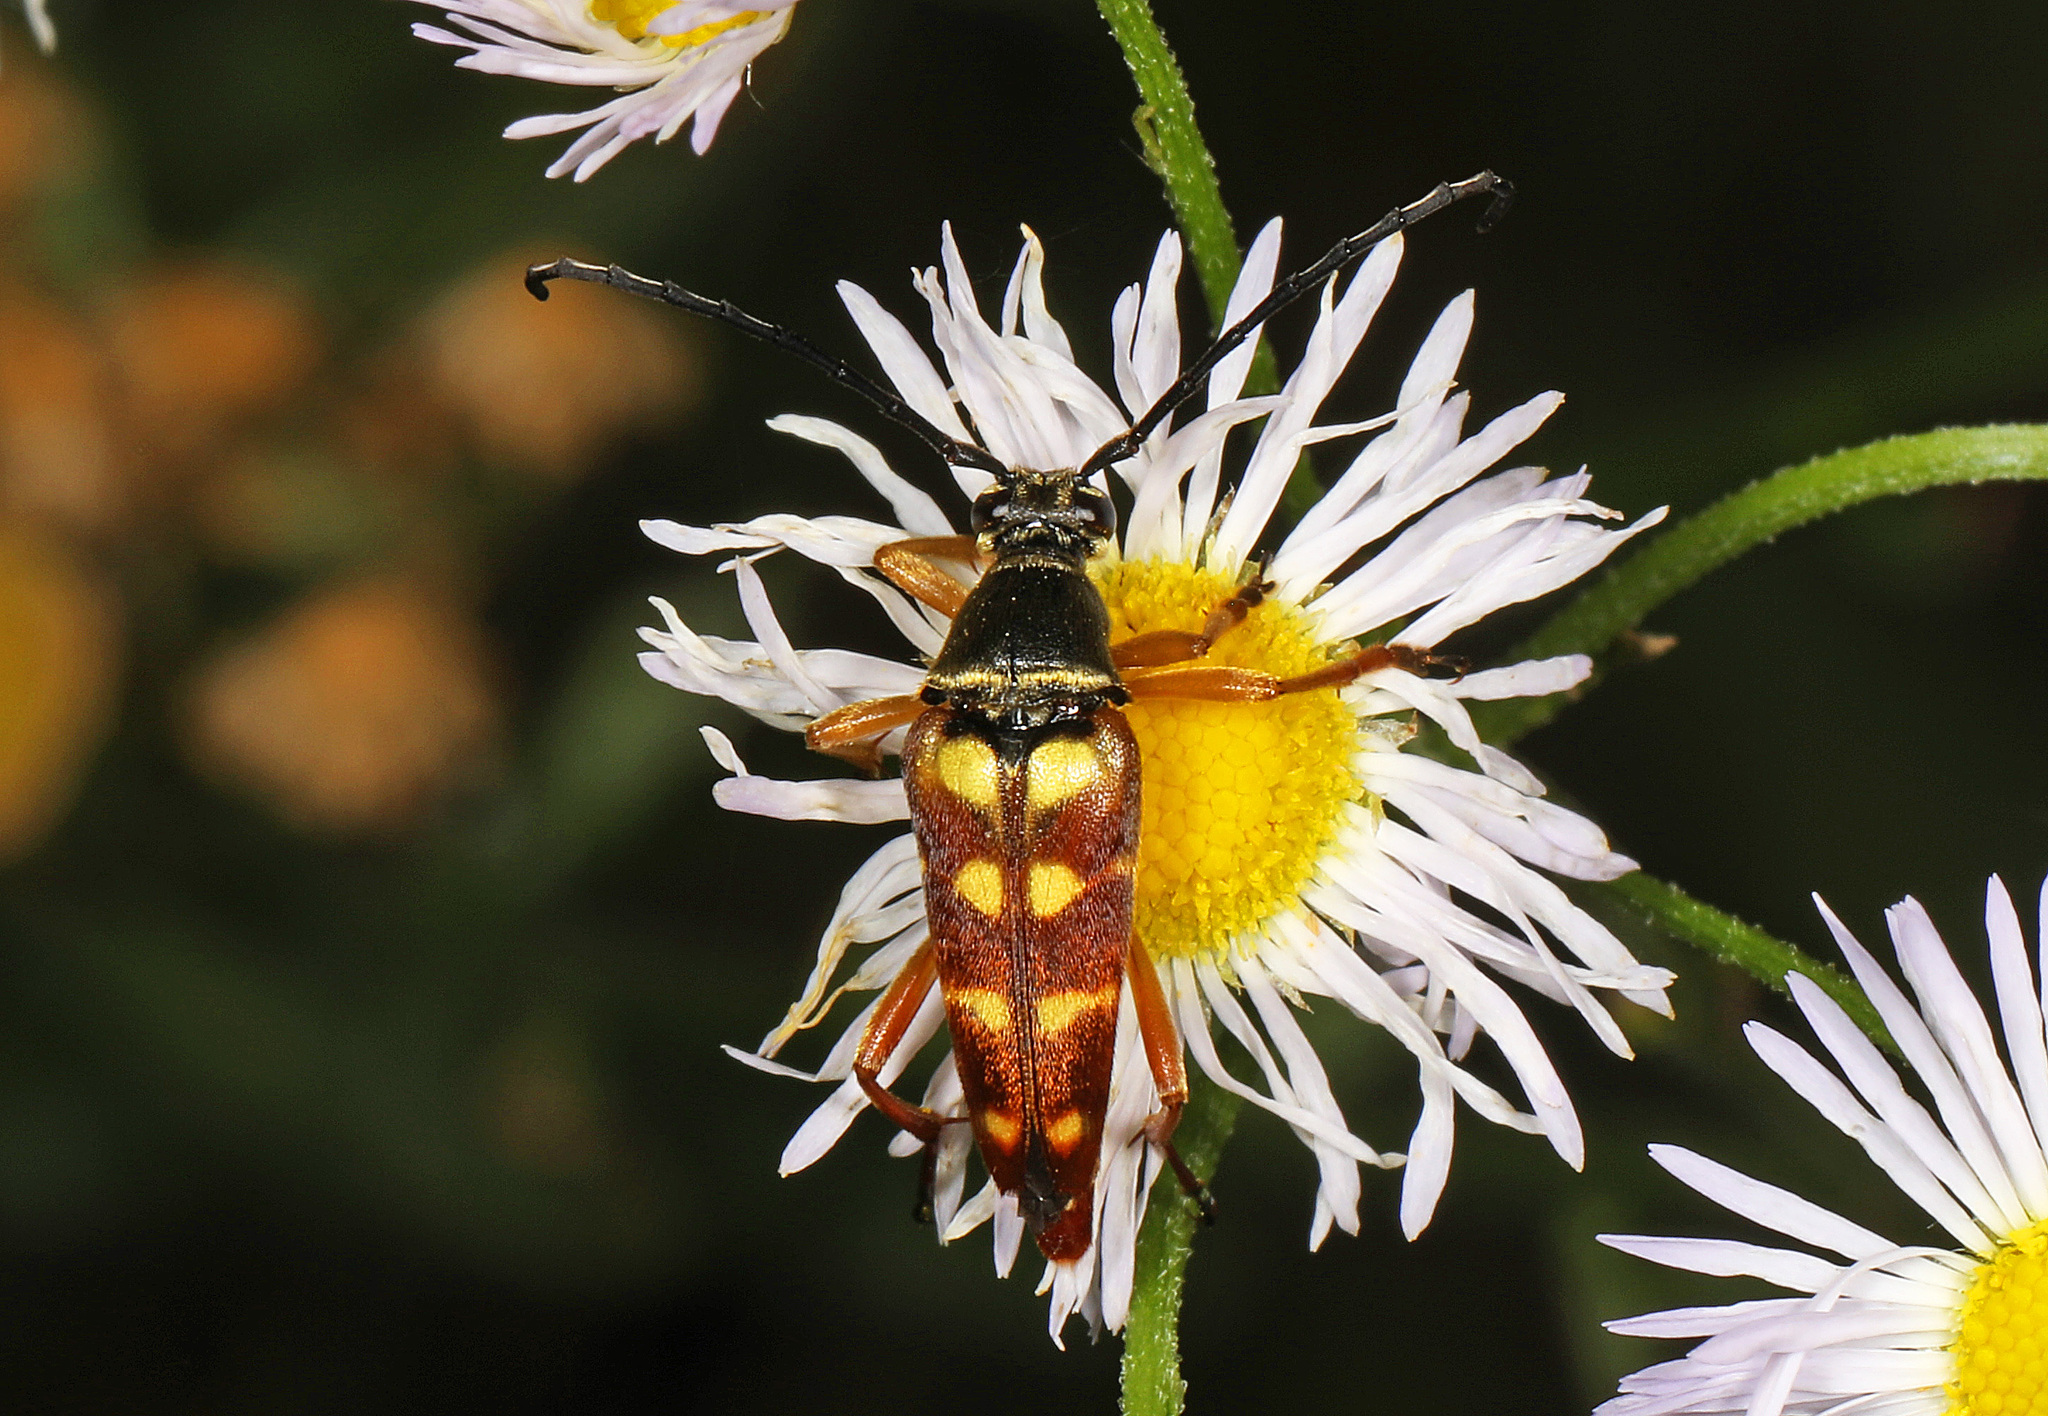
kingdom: Animalia
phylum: Arthropoda
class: Insecta
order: Coleoptera
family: Cerambycidae
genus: Typocerus
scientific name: Typocerus velutinus
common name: Banded longhorn beetle
